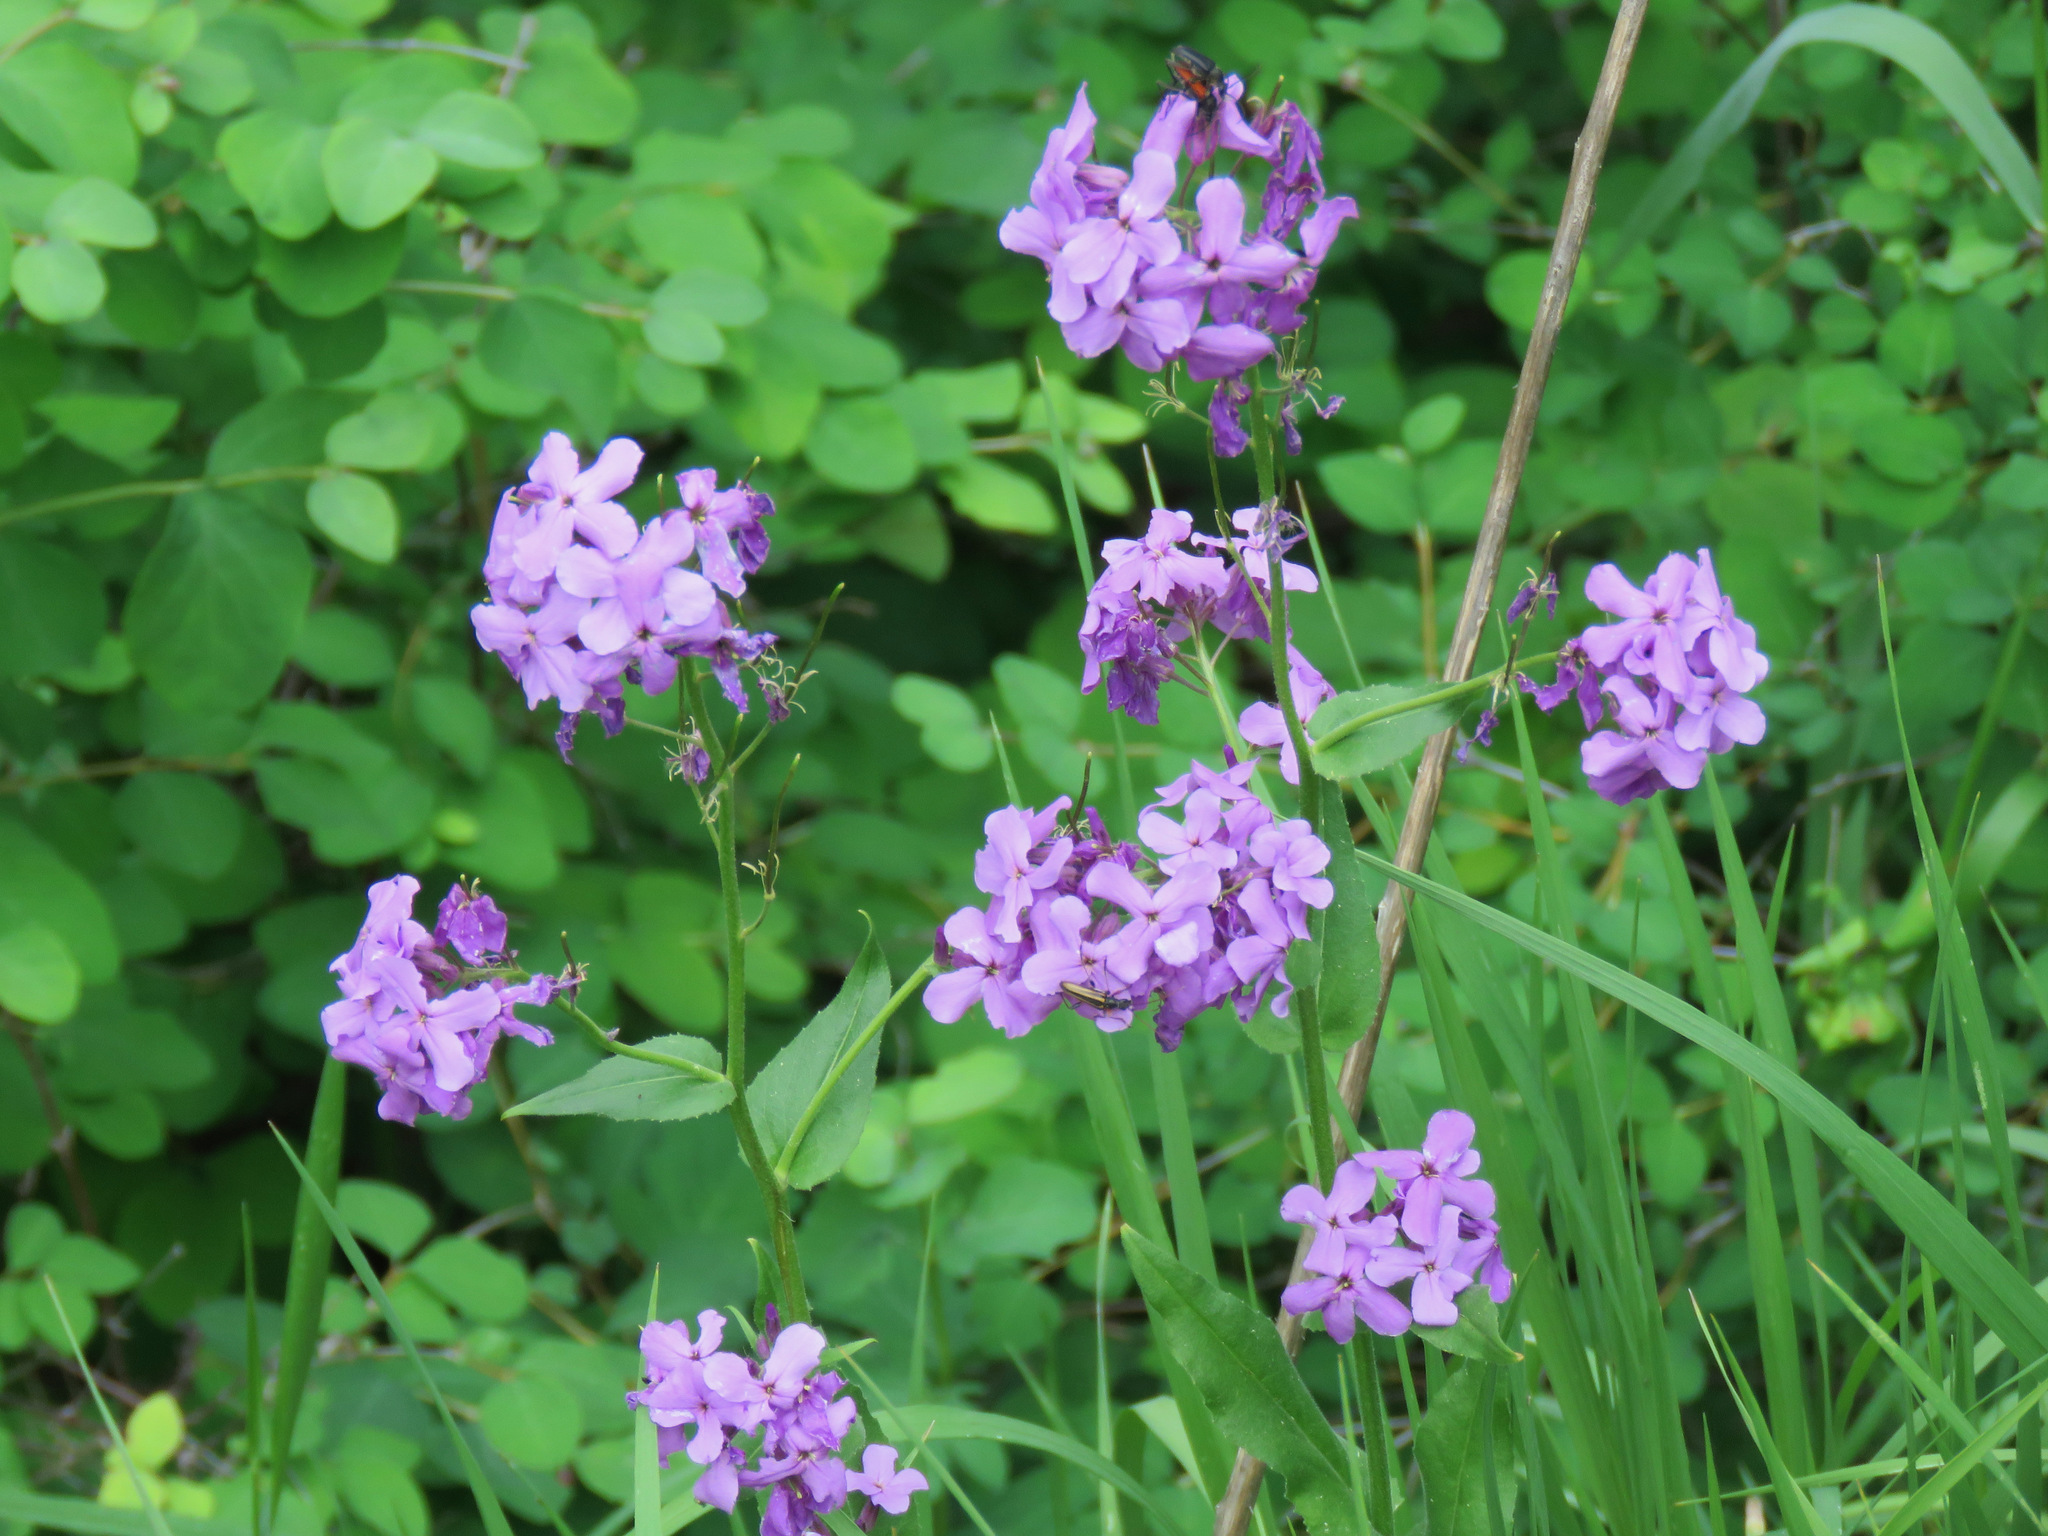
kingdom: Plantae
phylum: Tracheophyta
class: Magnoliopsida
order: Brassicales
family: Brassicaceae
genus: Hesperis
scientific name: Hesperis matronalis
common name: Dame's-violet
